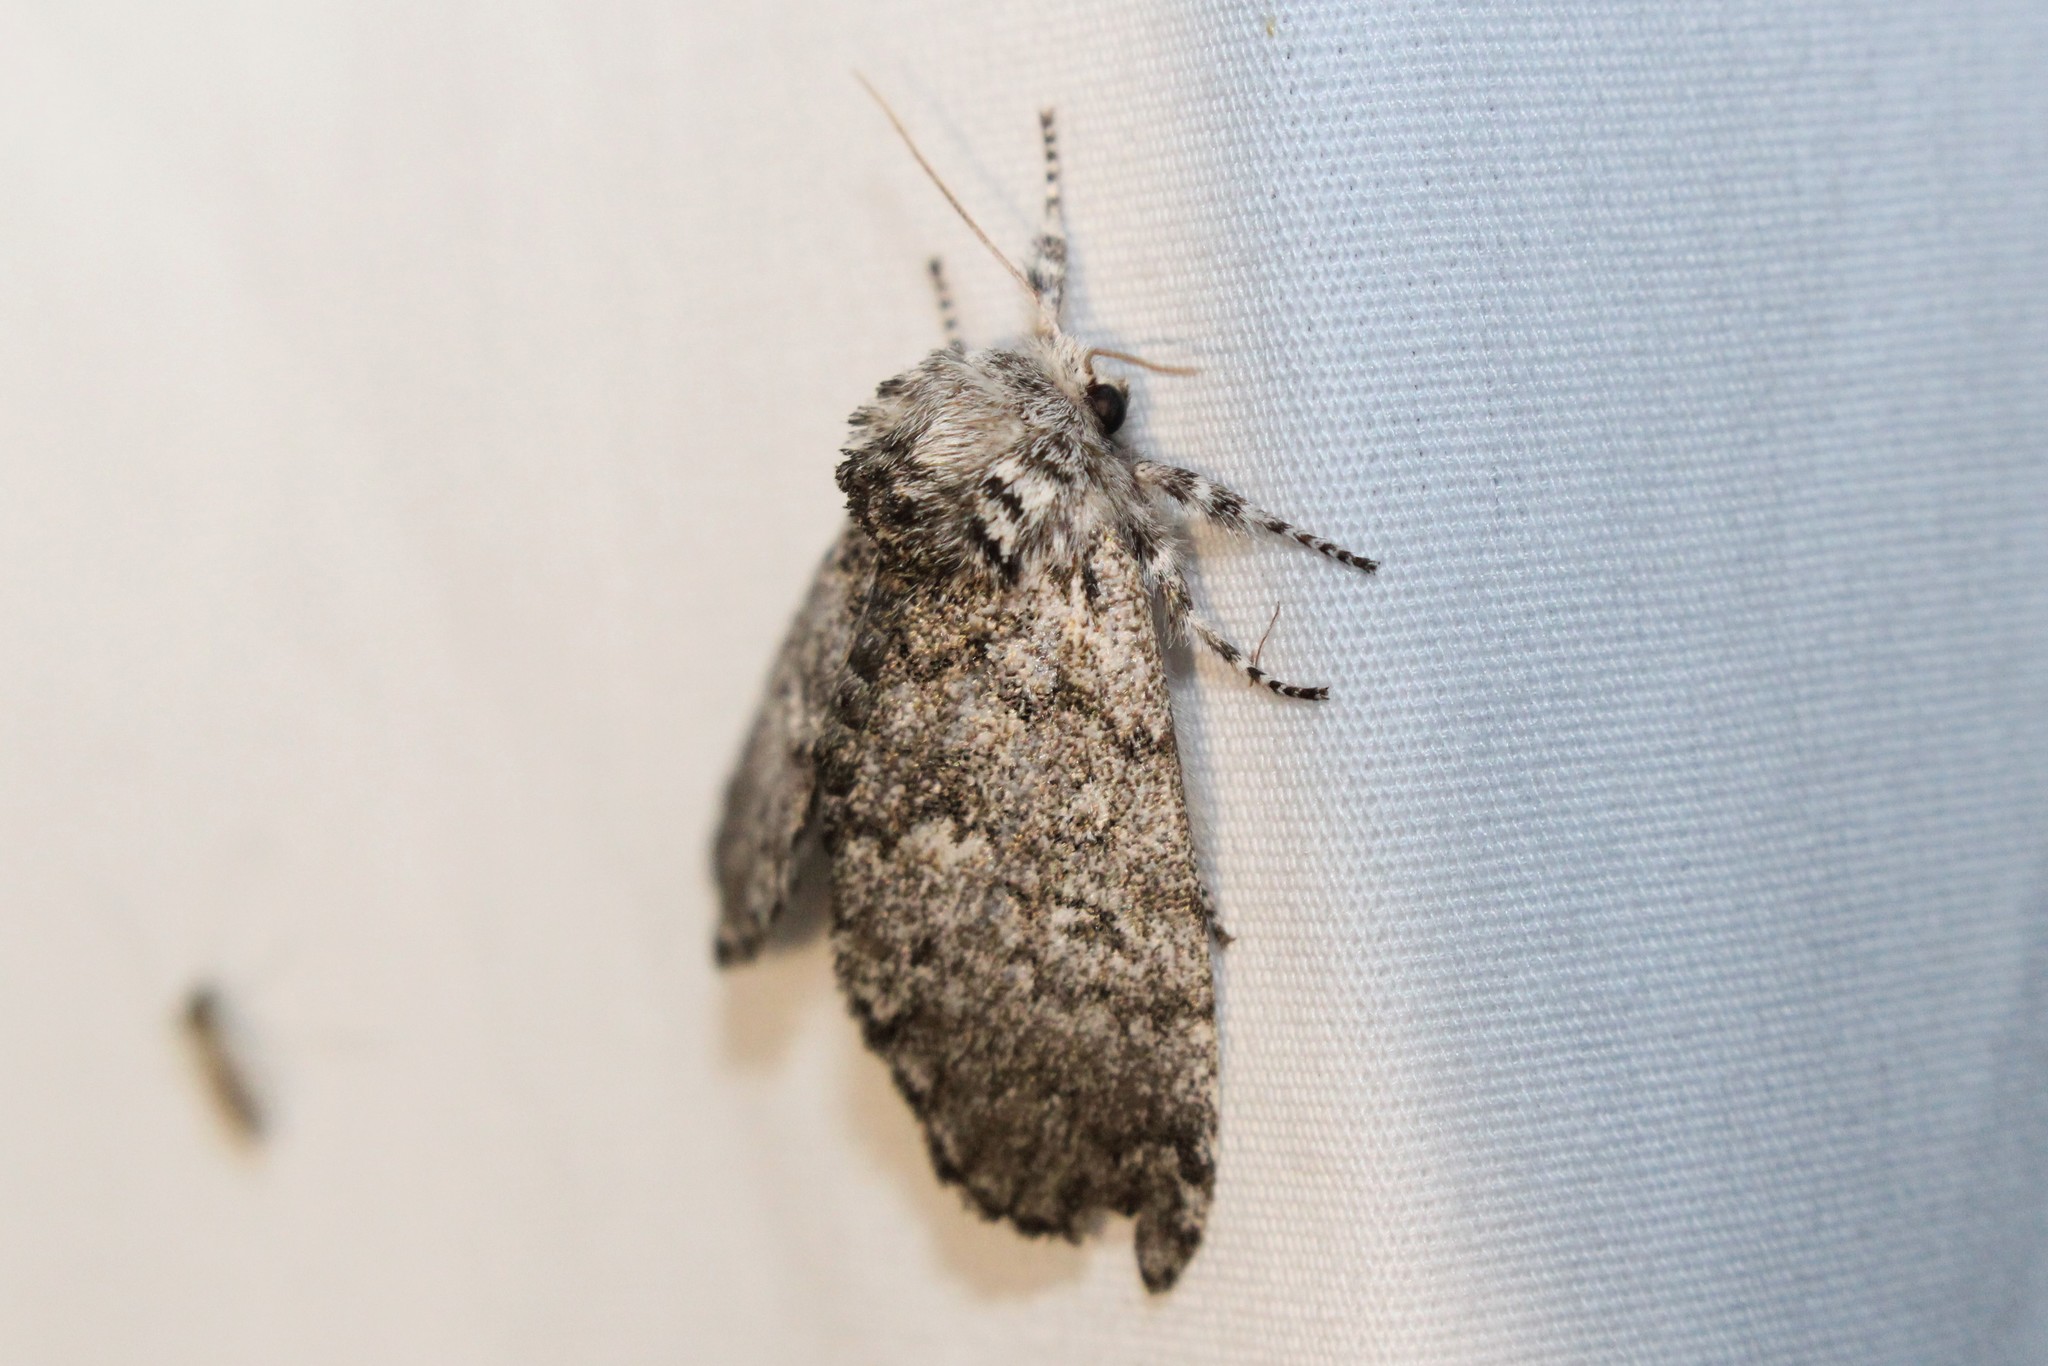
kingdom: Animalia
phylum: Arthropoda
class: Insecta
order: Lepidoptera
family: Noctuidae
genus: Colocasia
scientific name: Colocasia propinquilinea
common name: Close-banded demas
